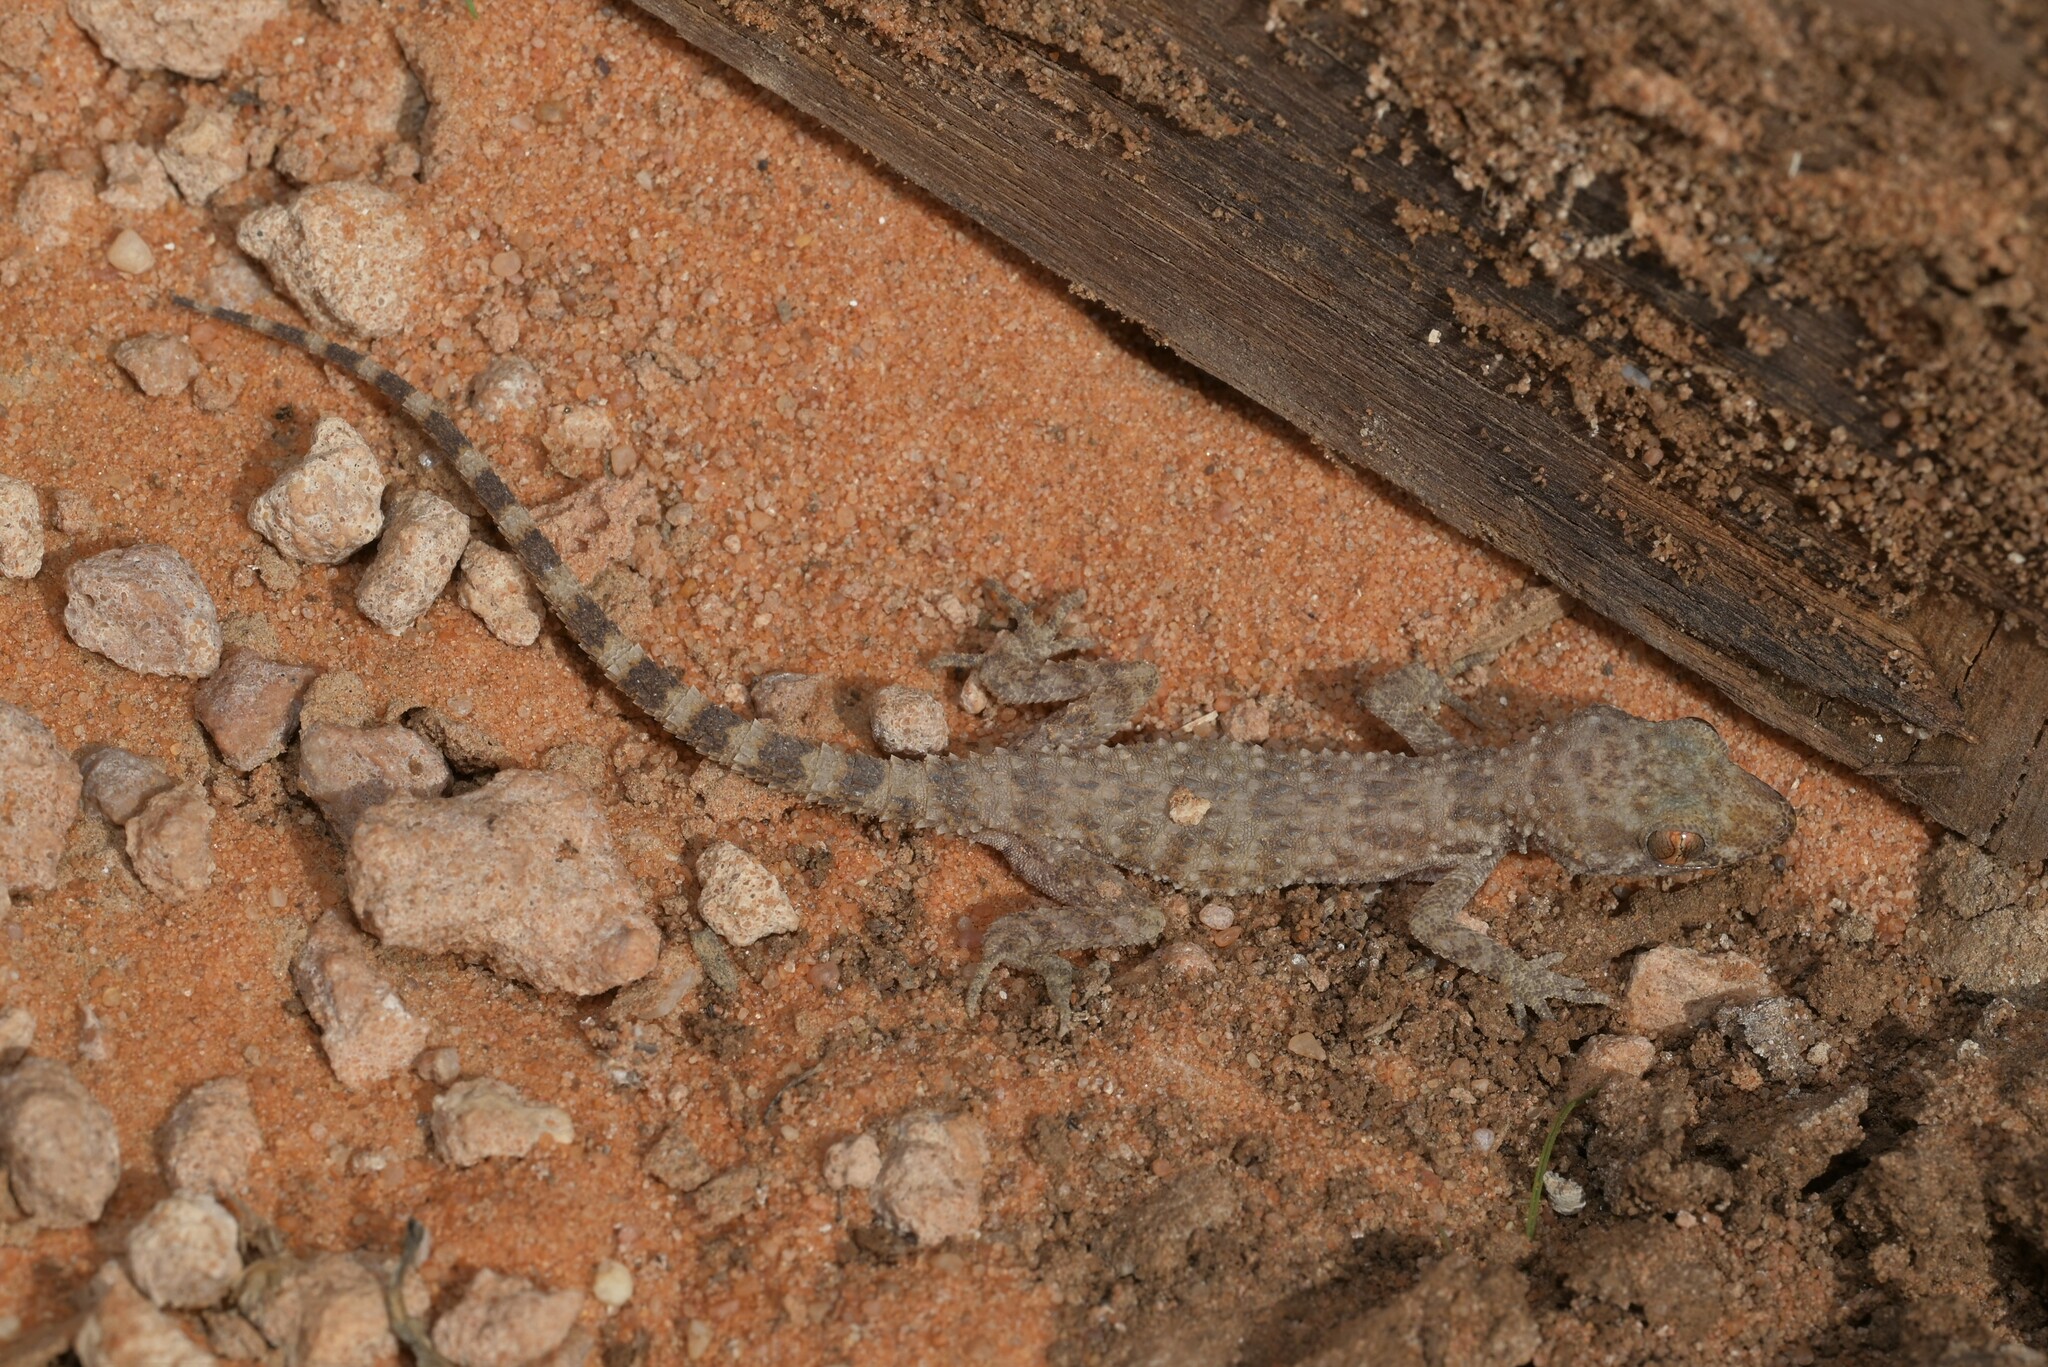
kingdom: Animalia
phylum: Chordata
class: Squamata
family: Gekkonidae
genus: Bunopus
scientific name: Bunopus tuberculatus
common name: Southern tuberculated gecko
